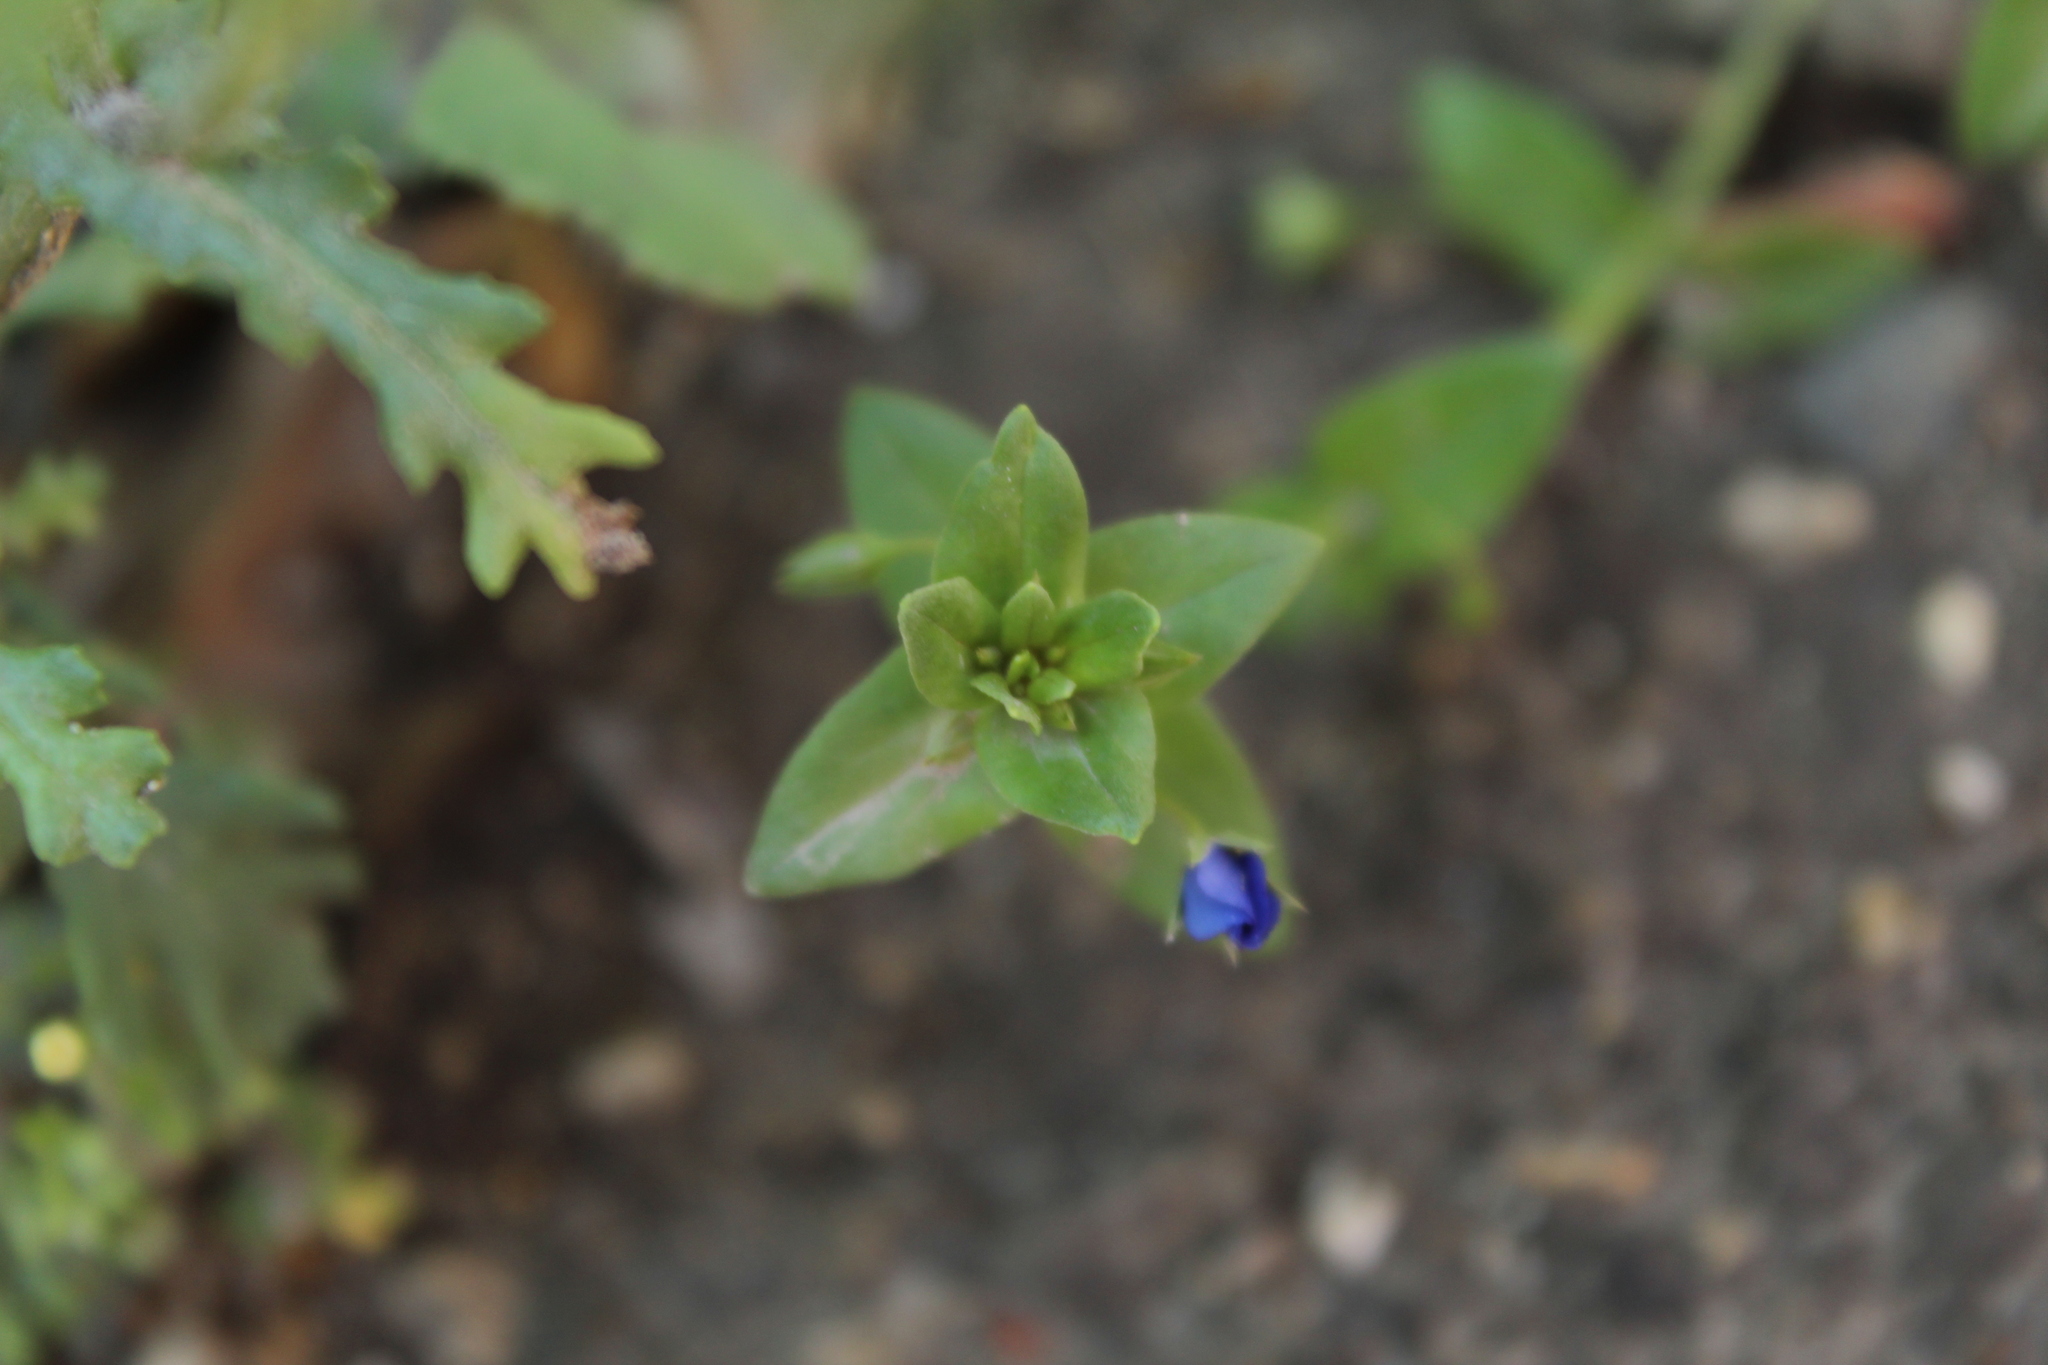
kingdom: Plantae
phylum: Tracheophyta
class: Magnoliopsida
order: Ericales
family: Primulaceae
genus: Lysimachia
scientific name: Lysimachia arvensis
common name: Scarlet pimpernel
